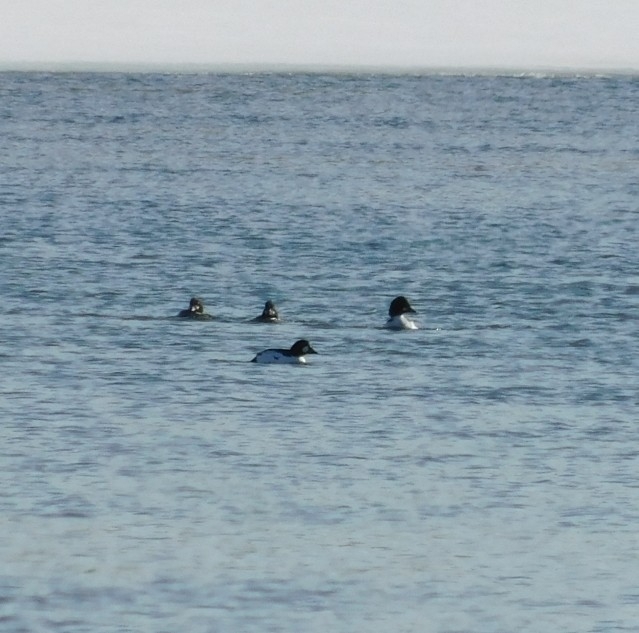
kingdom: Animalia
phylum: Chordata
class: Aves
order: Anseriformes
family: Anatidae
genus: Bucephala
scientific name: Bucephala clangula
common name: Common goldeneye
